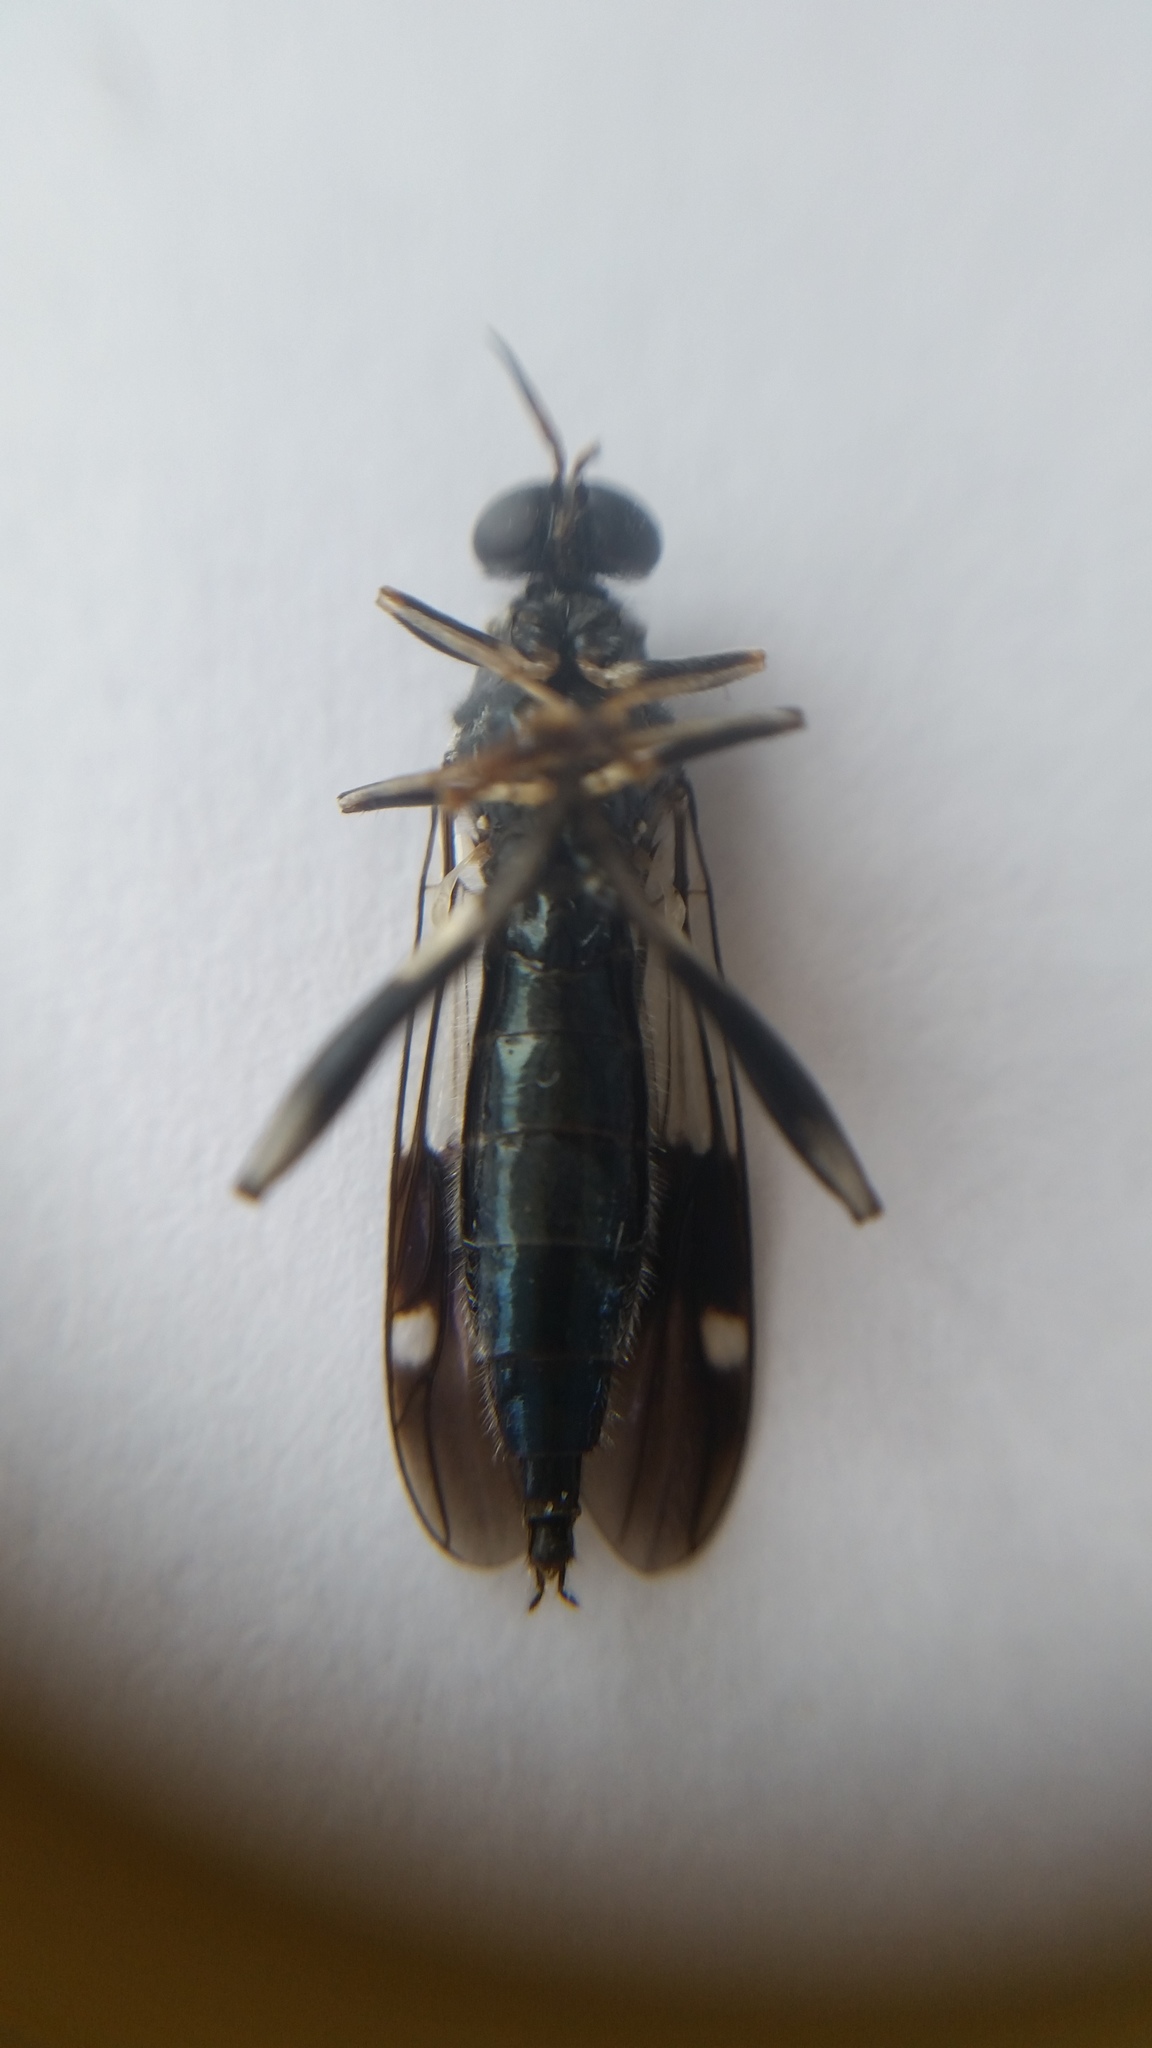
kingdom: Animalia
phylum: Arthropoda
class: Insecta
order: Diptera
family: Stratiomyidae
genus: Exaireta
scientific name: Exaireta spinigera
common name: Blue soldier fly
